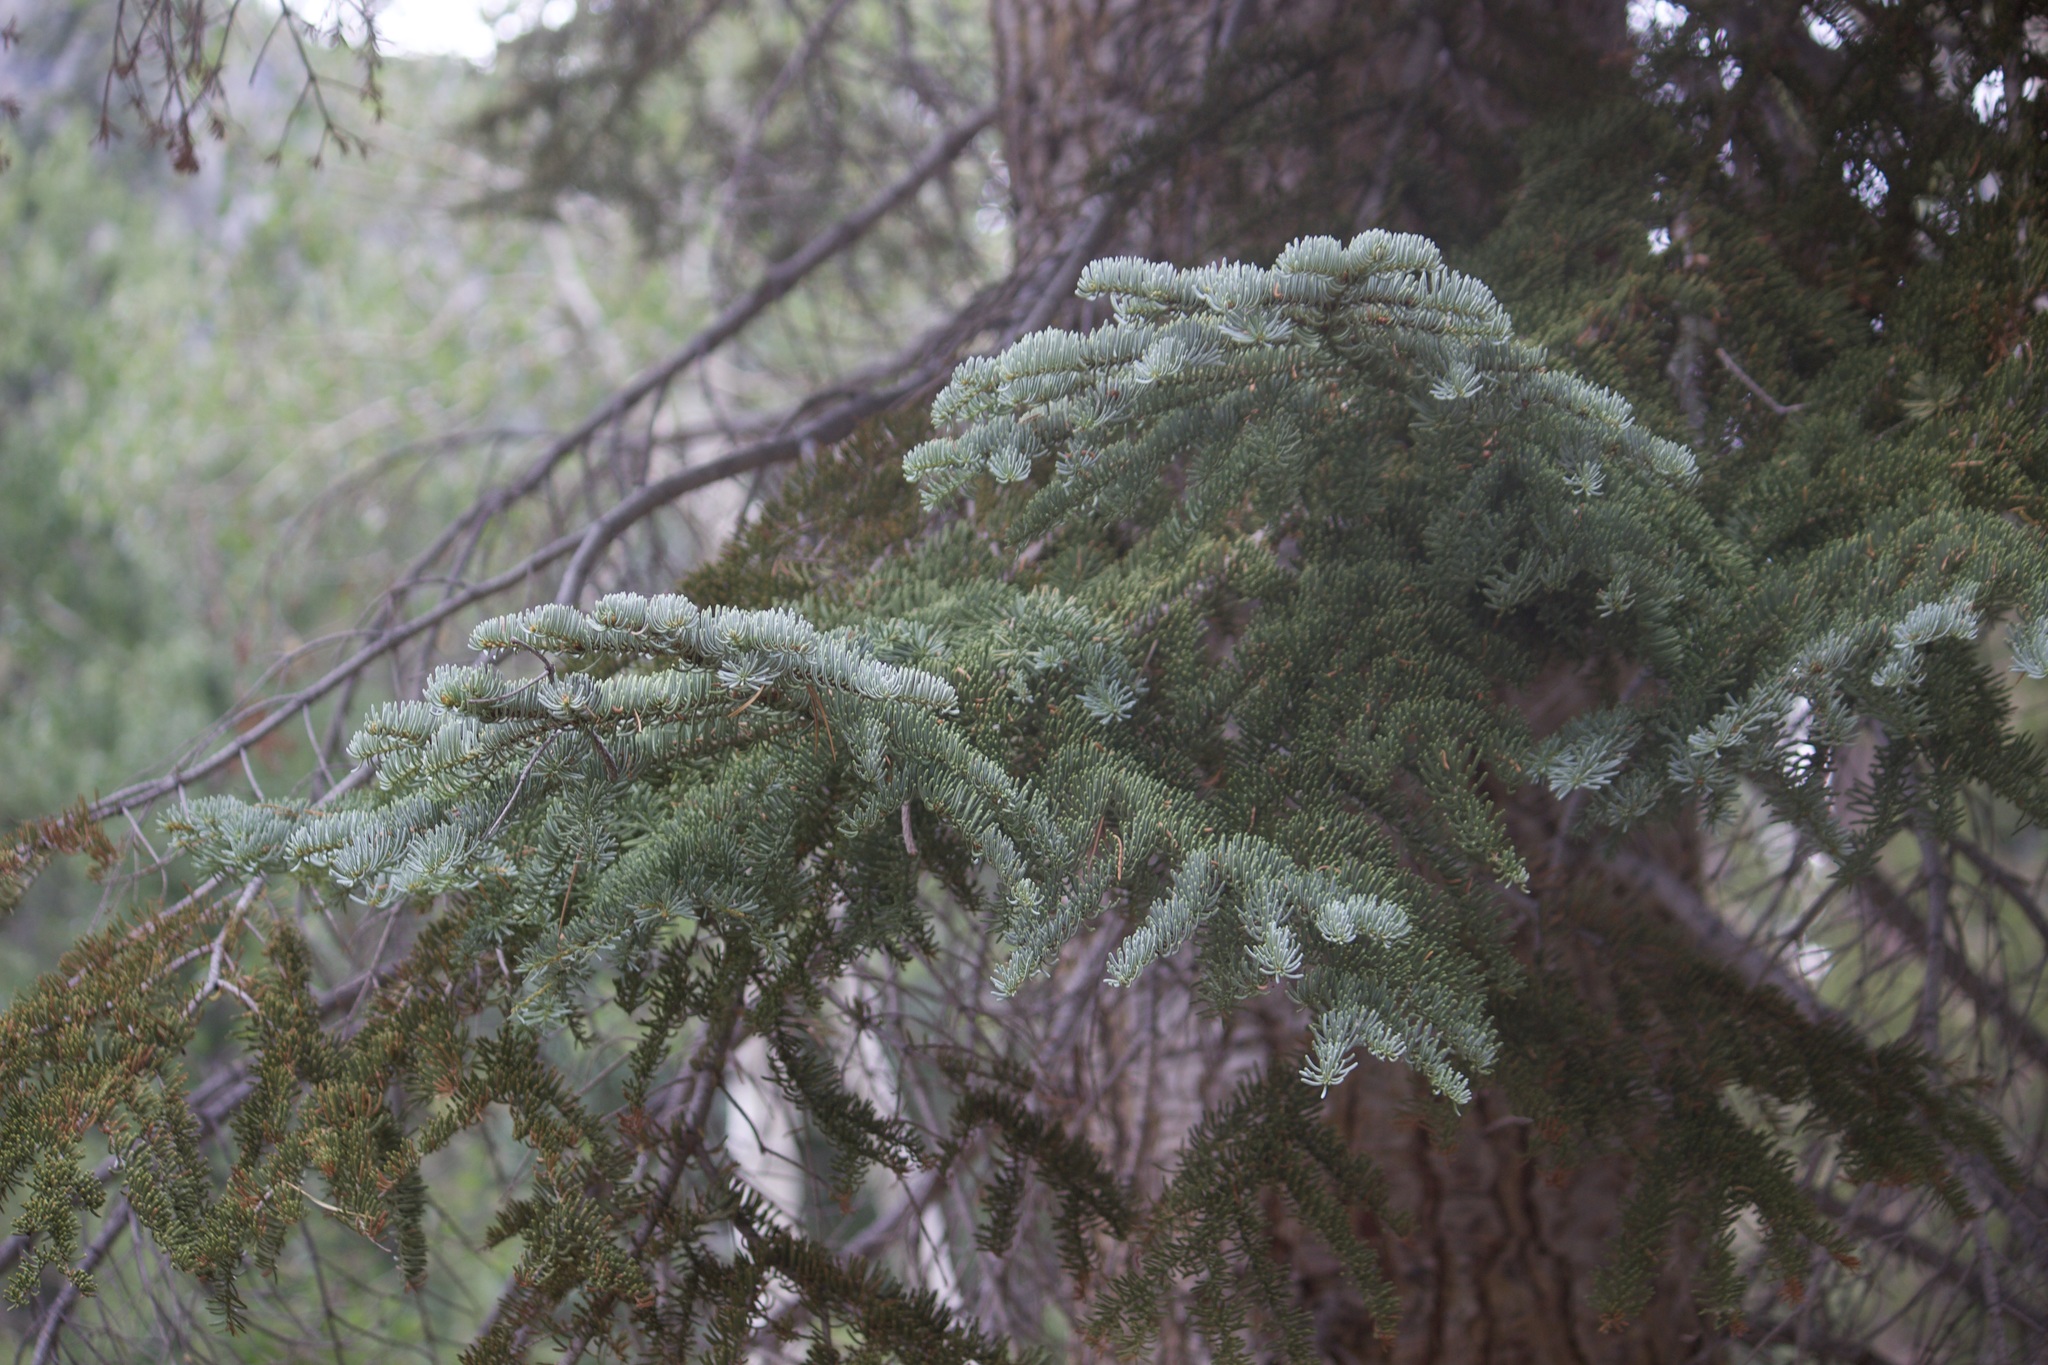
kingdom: Plantae
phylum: Tracheophyta
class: Pinopsida
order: Pinales
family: Pinaceae
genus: Abies
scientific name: Abies magnifica bis
